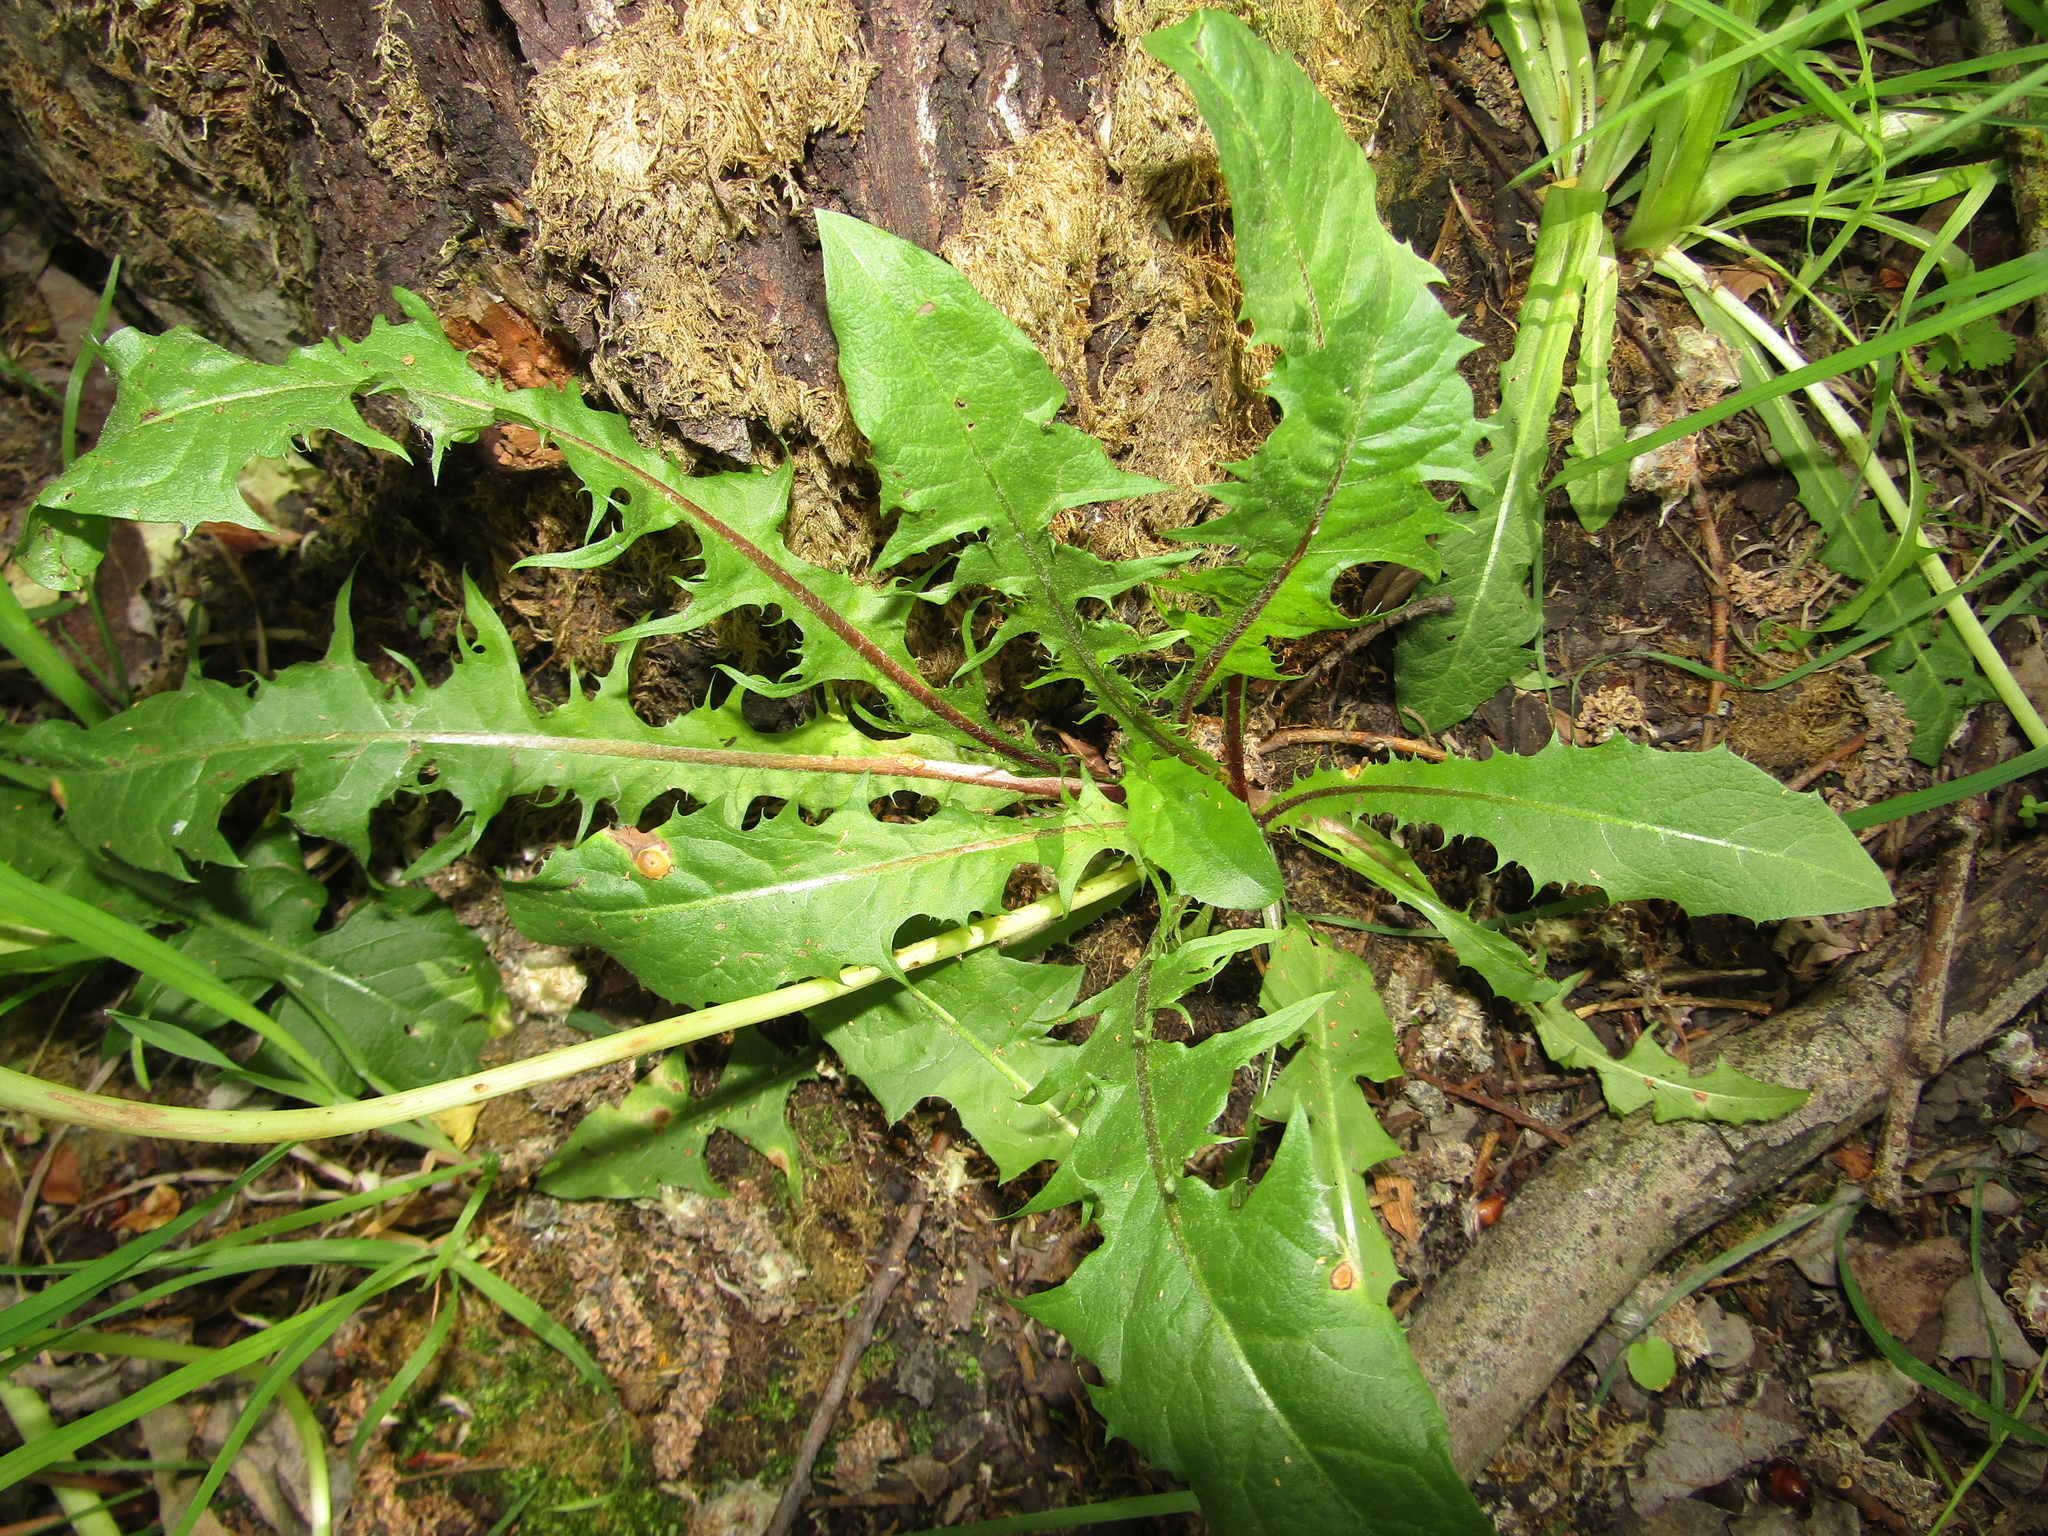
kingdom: Fungi
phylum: Basidiomycota
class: Pucciniomycetes
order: Pucciniales
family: Pucciniaceae
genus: Puccinia
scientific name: Puccinia dioicae
